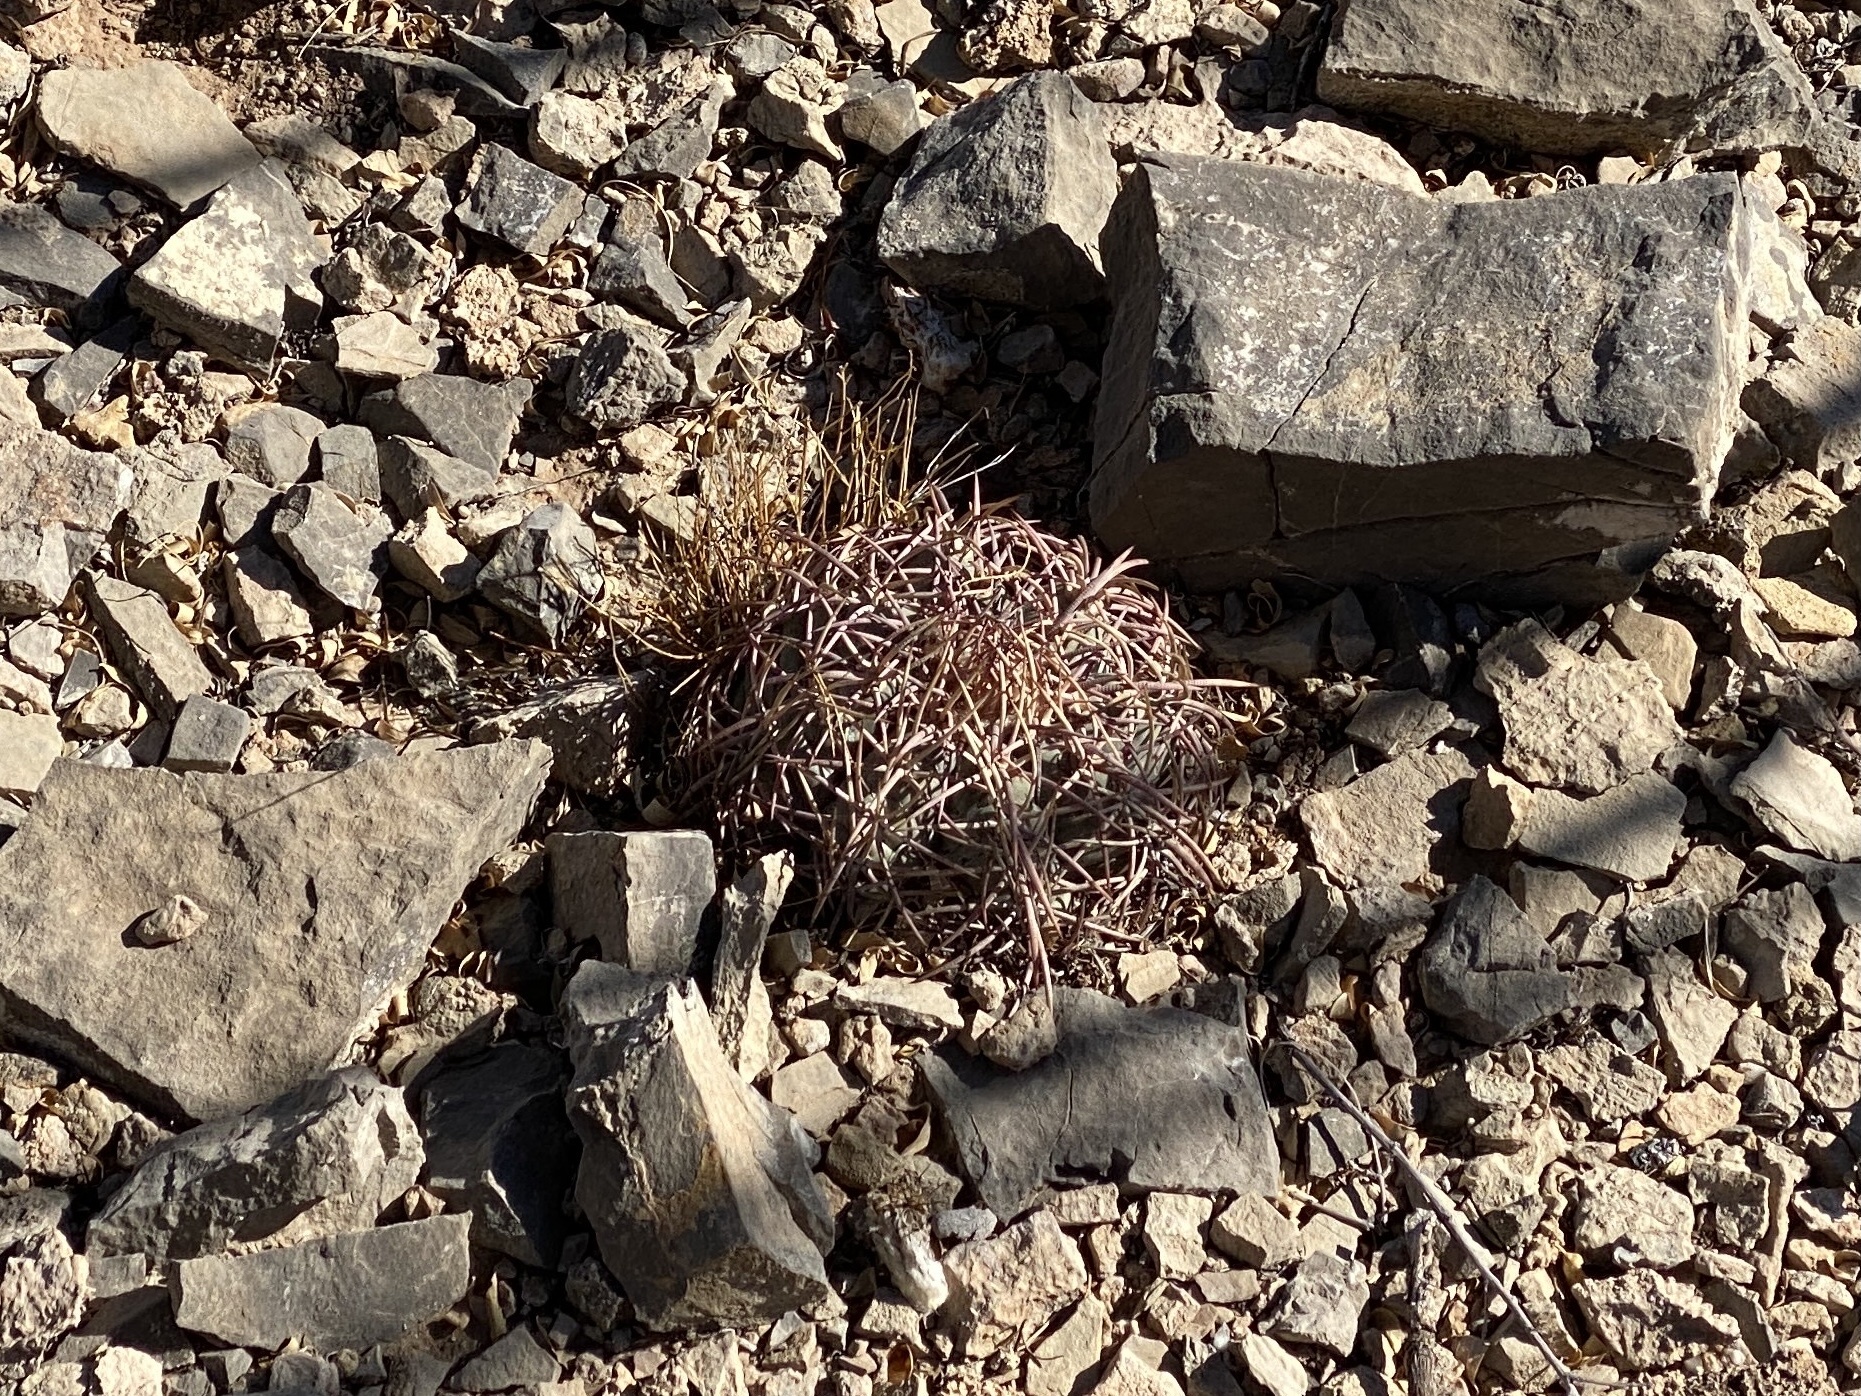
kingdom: Plantae
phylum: Tracheophyta
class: Magnoliopsida
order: Caryophyllales
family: Cactaceae
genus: Echinocactus
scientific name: Echinocactus horizonthalonius
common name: Devilshead
